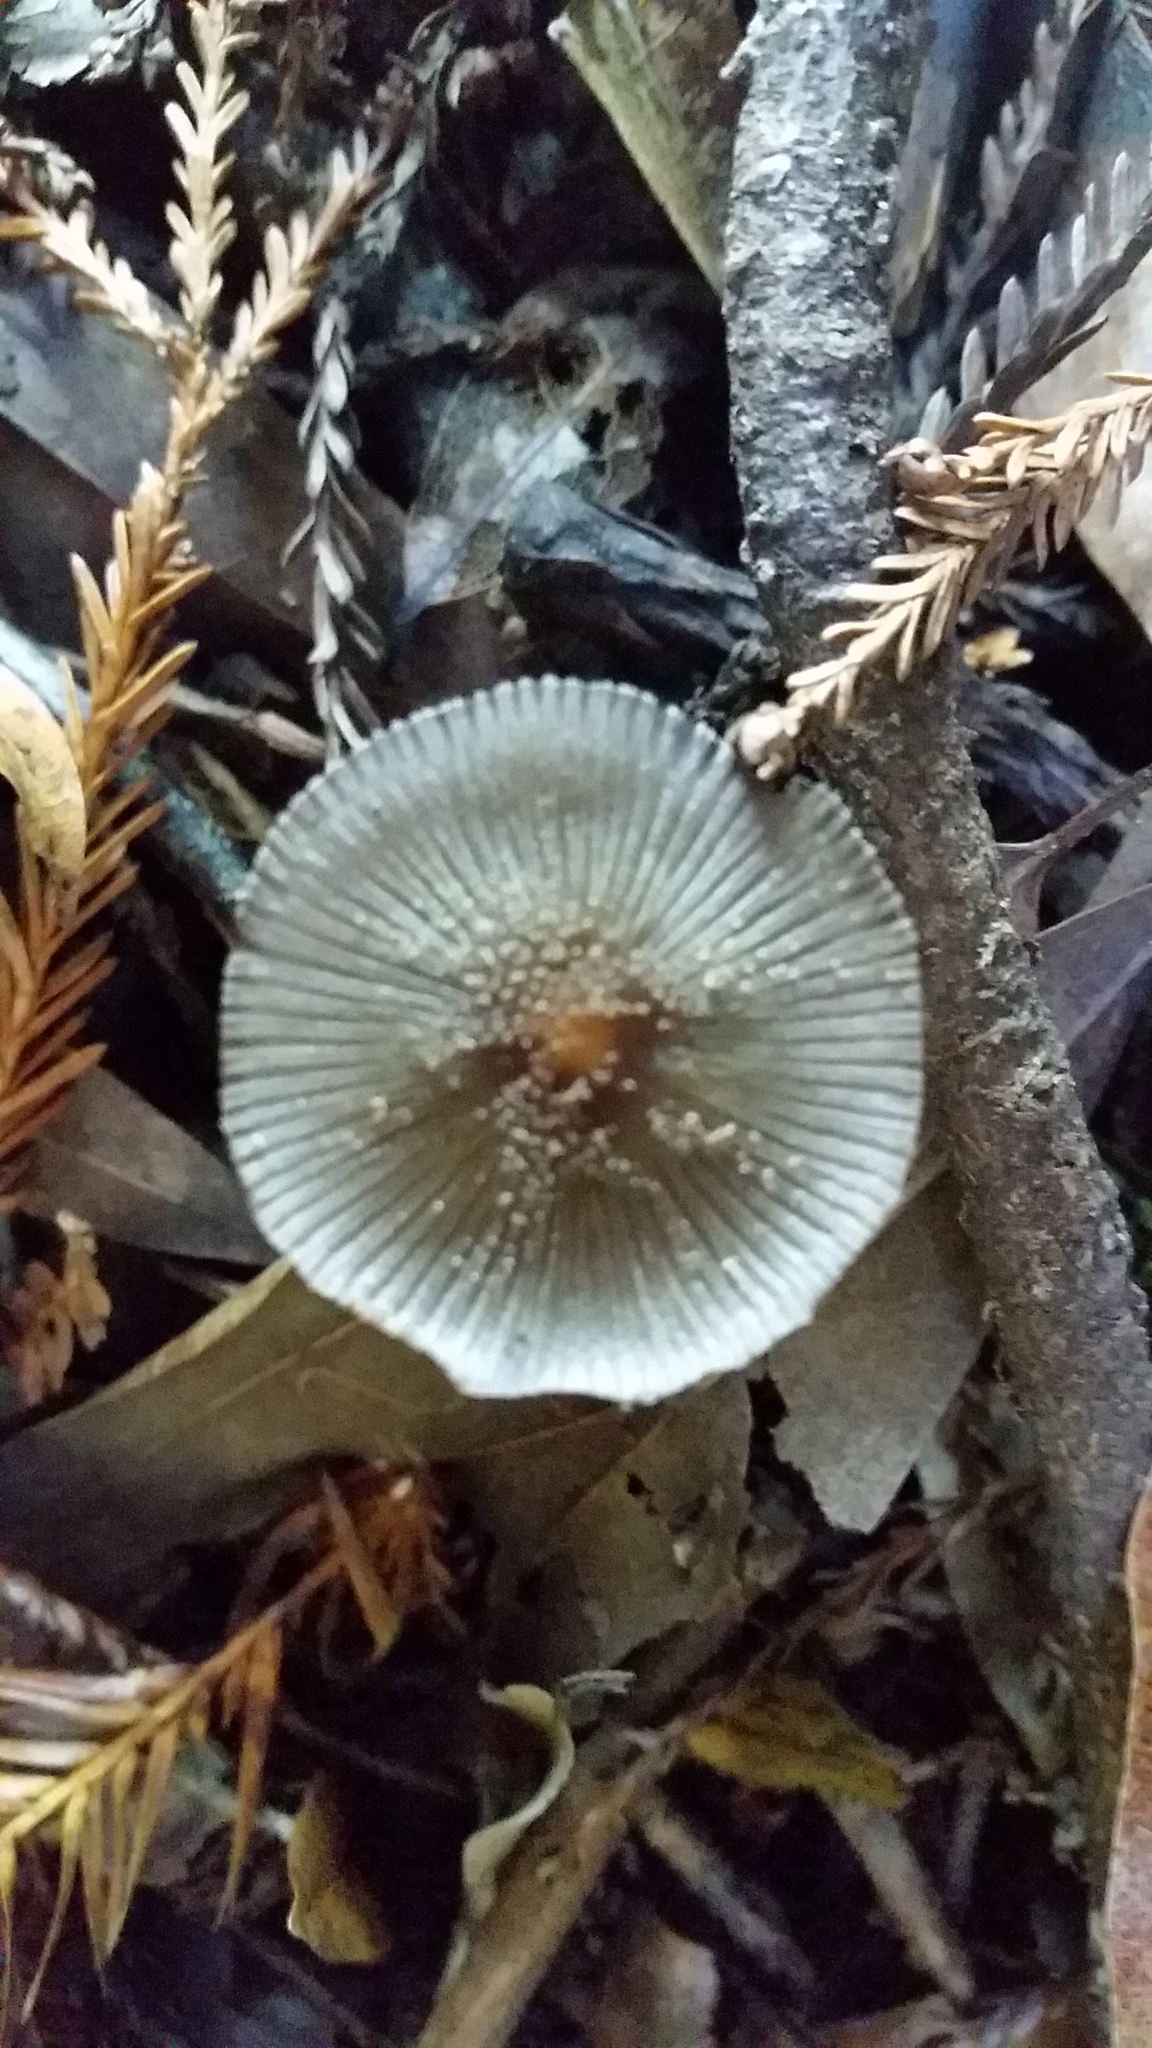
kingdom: Fungi
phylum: Basidiomycota
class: Agaricomycetes
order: Agaricales
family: Psathyrellaceae
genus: Coprinopsis
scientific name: Coprinopsis lagopus
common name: Hare'sfoot inkcap
